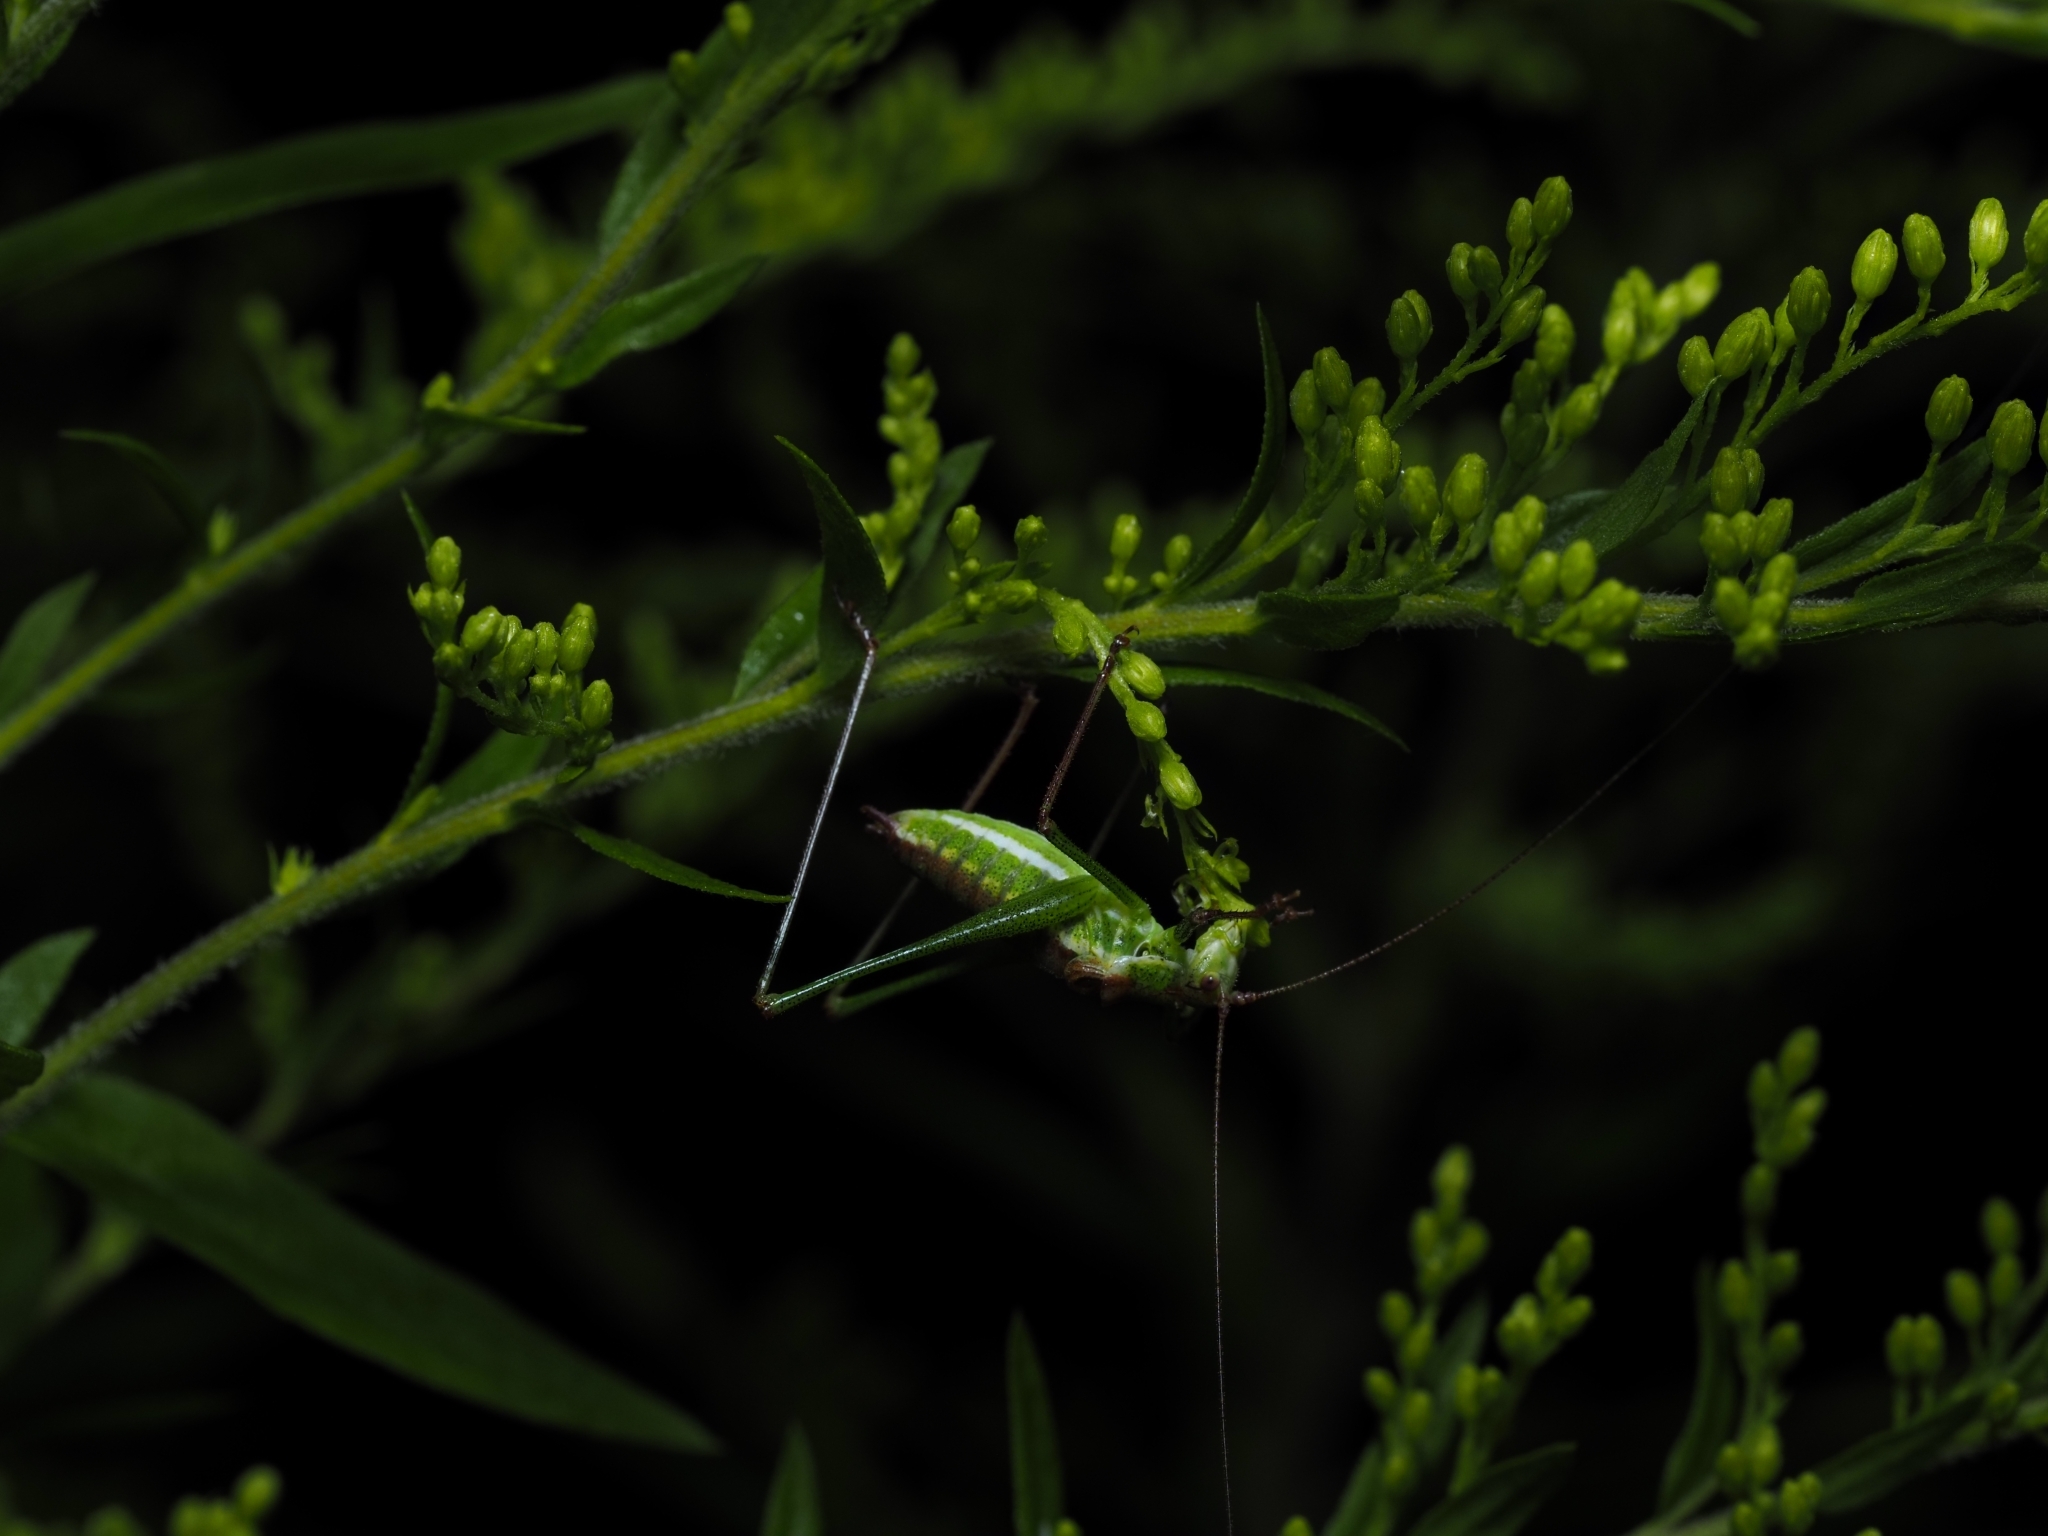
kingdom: Animalia
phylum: Arthropoda
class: Insecta
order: Orthoptera
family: Tettigoniidae
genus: Leptophyes
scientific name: Leptophyes albovittata
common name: Striped bush-cricket
